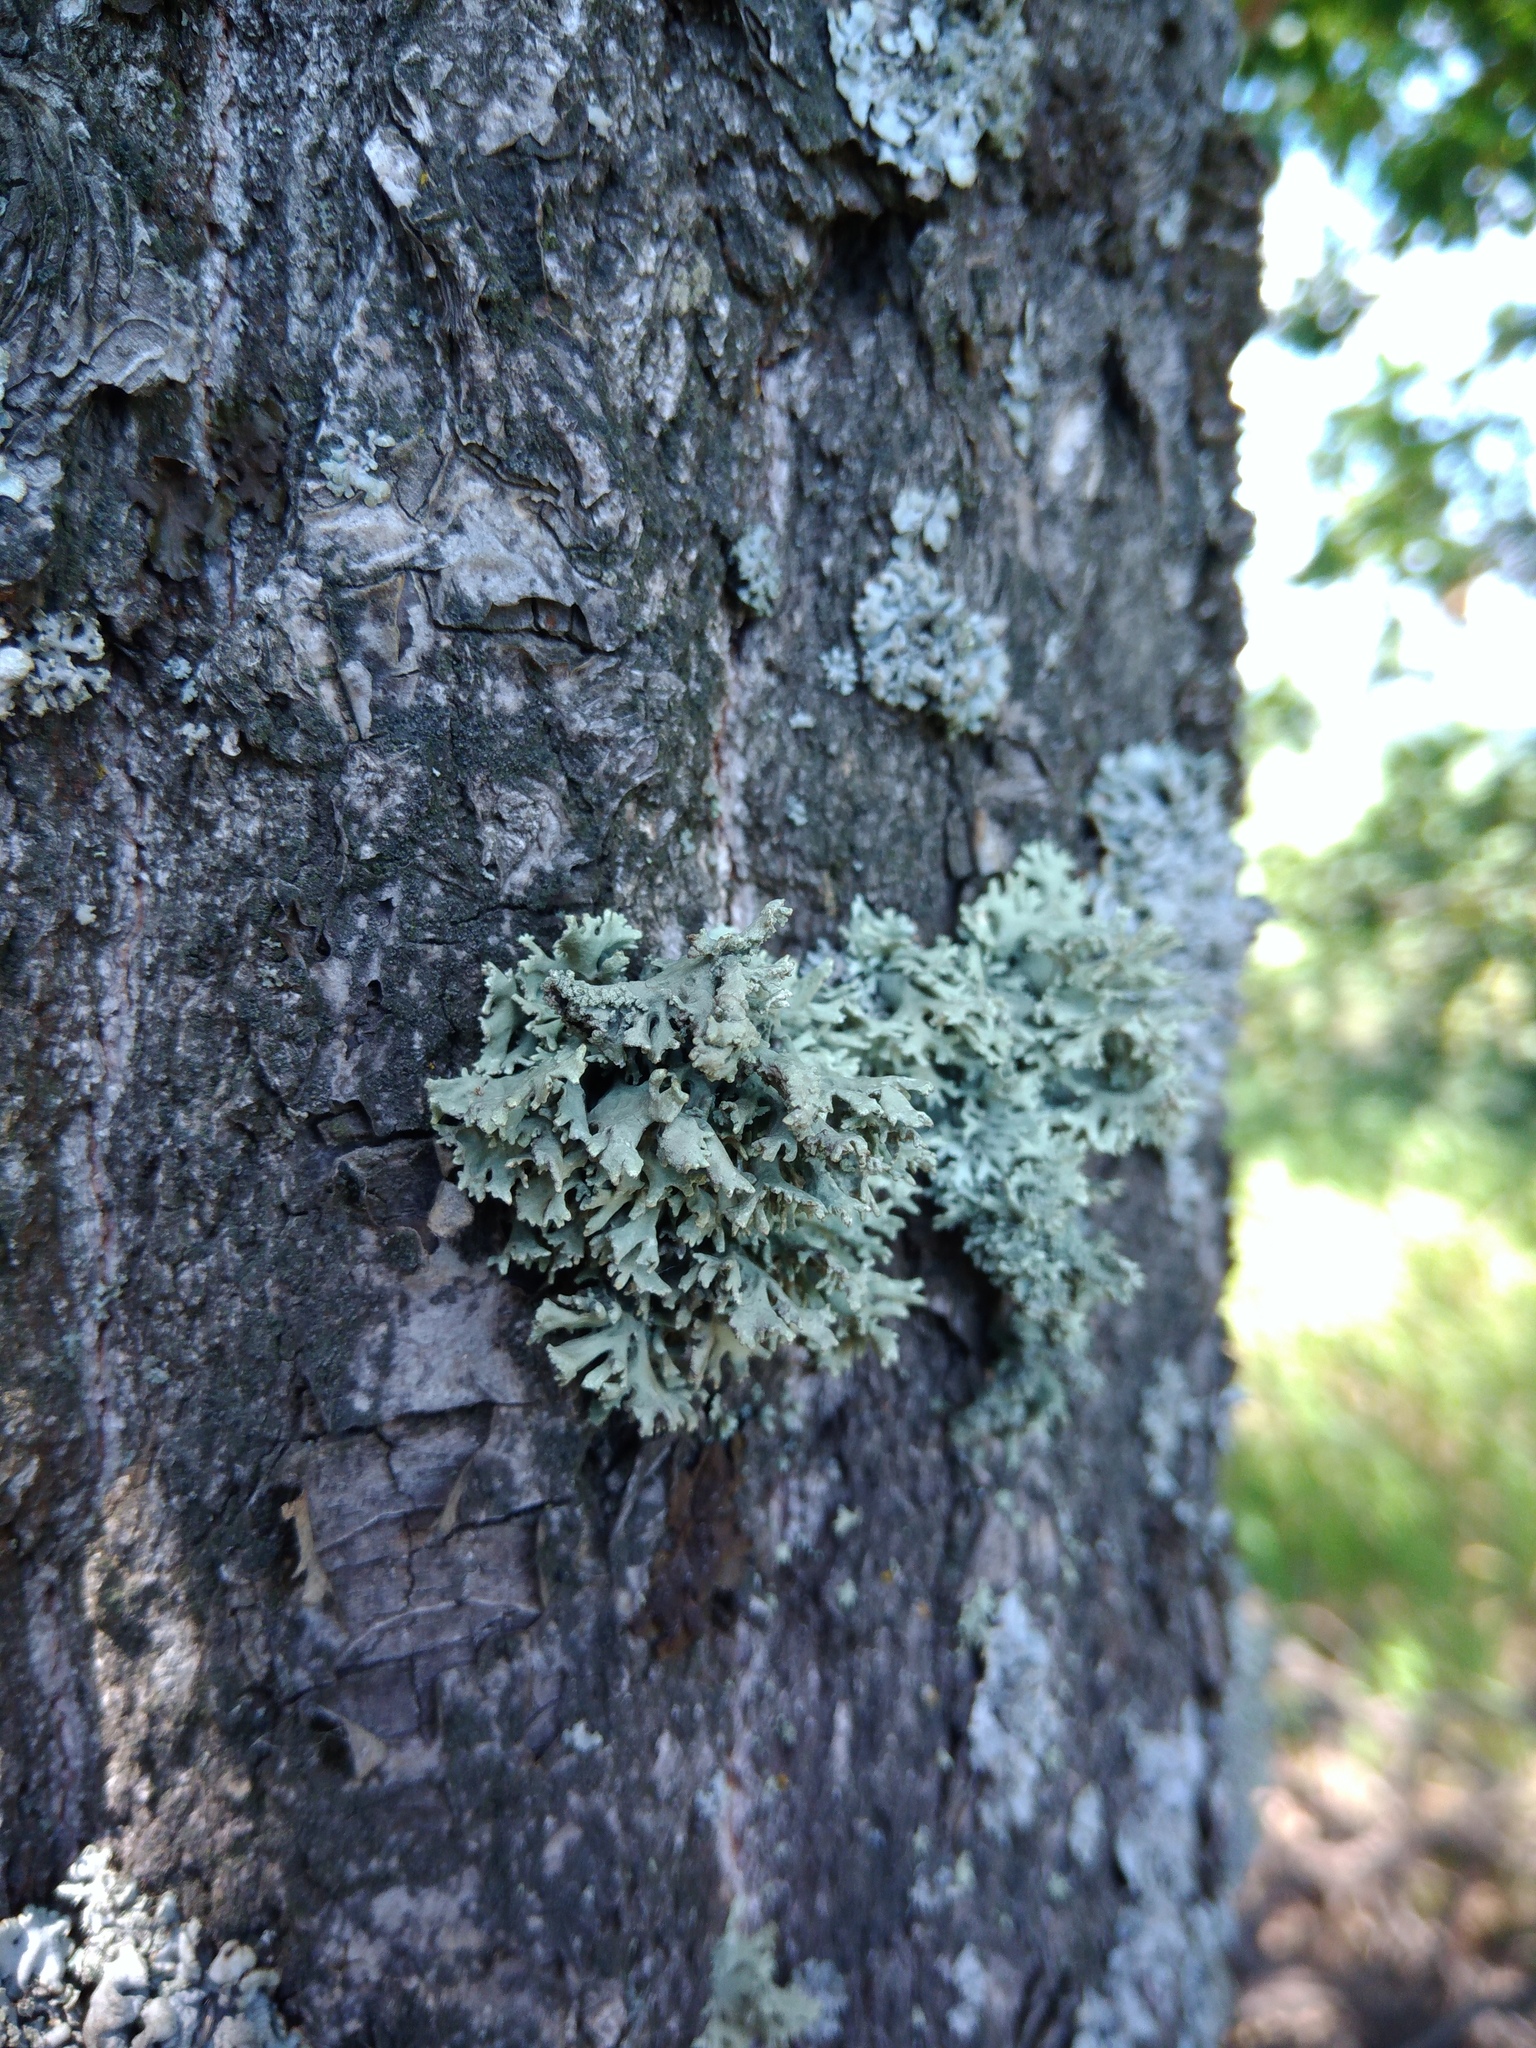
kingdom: Fungi
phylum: Ascomycota
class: Lecanoromycetes
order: Lecanorales
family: Parmeliaceae
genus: Evernia
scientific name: Evernia prunastri
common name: Oak moss
